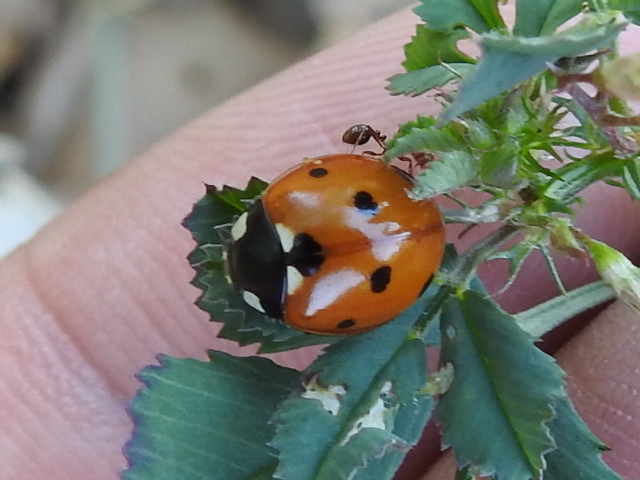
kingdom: Animalia
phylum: Arthropoda
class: Insecta
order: Coleoptera
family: Coccinellidae
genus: Coccinella
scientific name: Coccinella septempunctata
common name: Sevenspotted lady beetle
